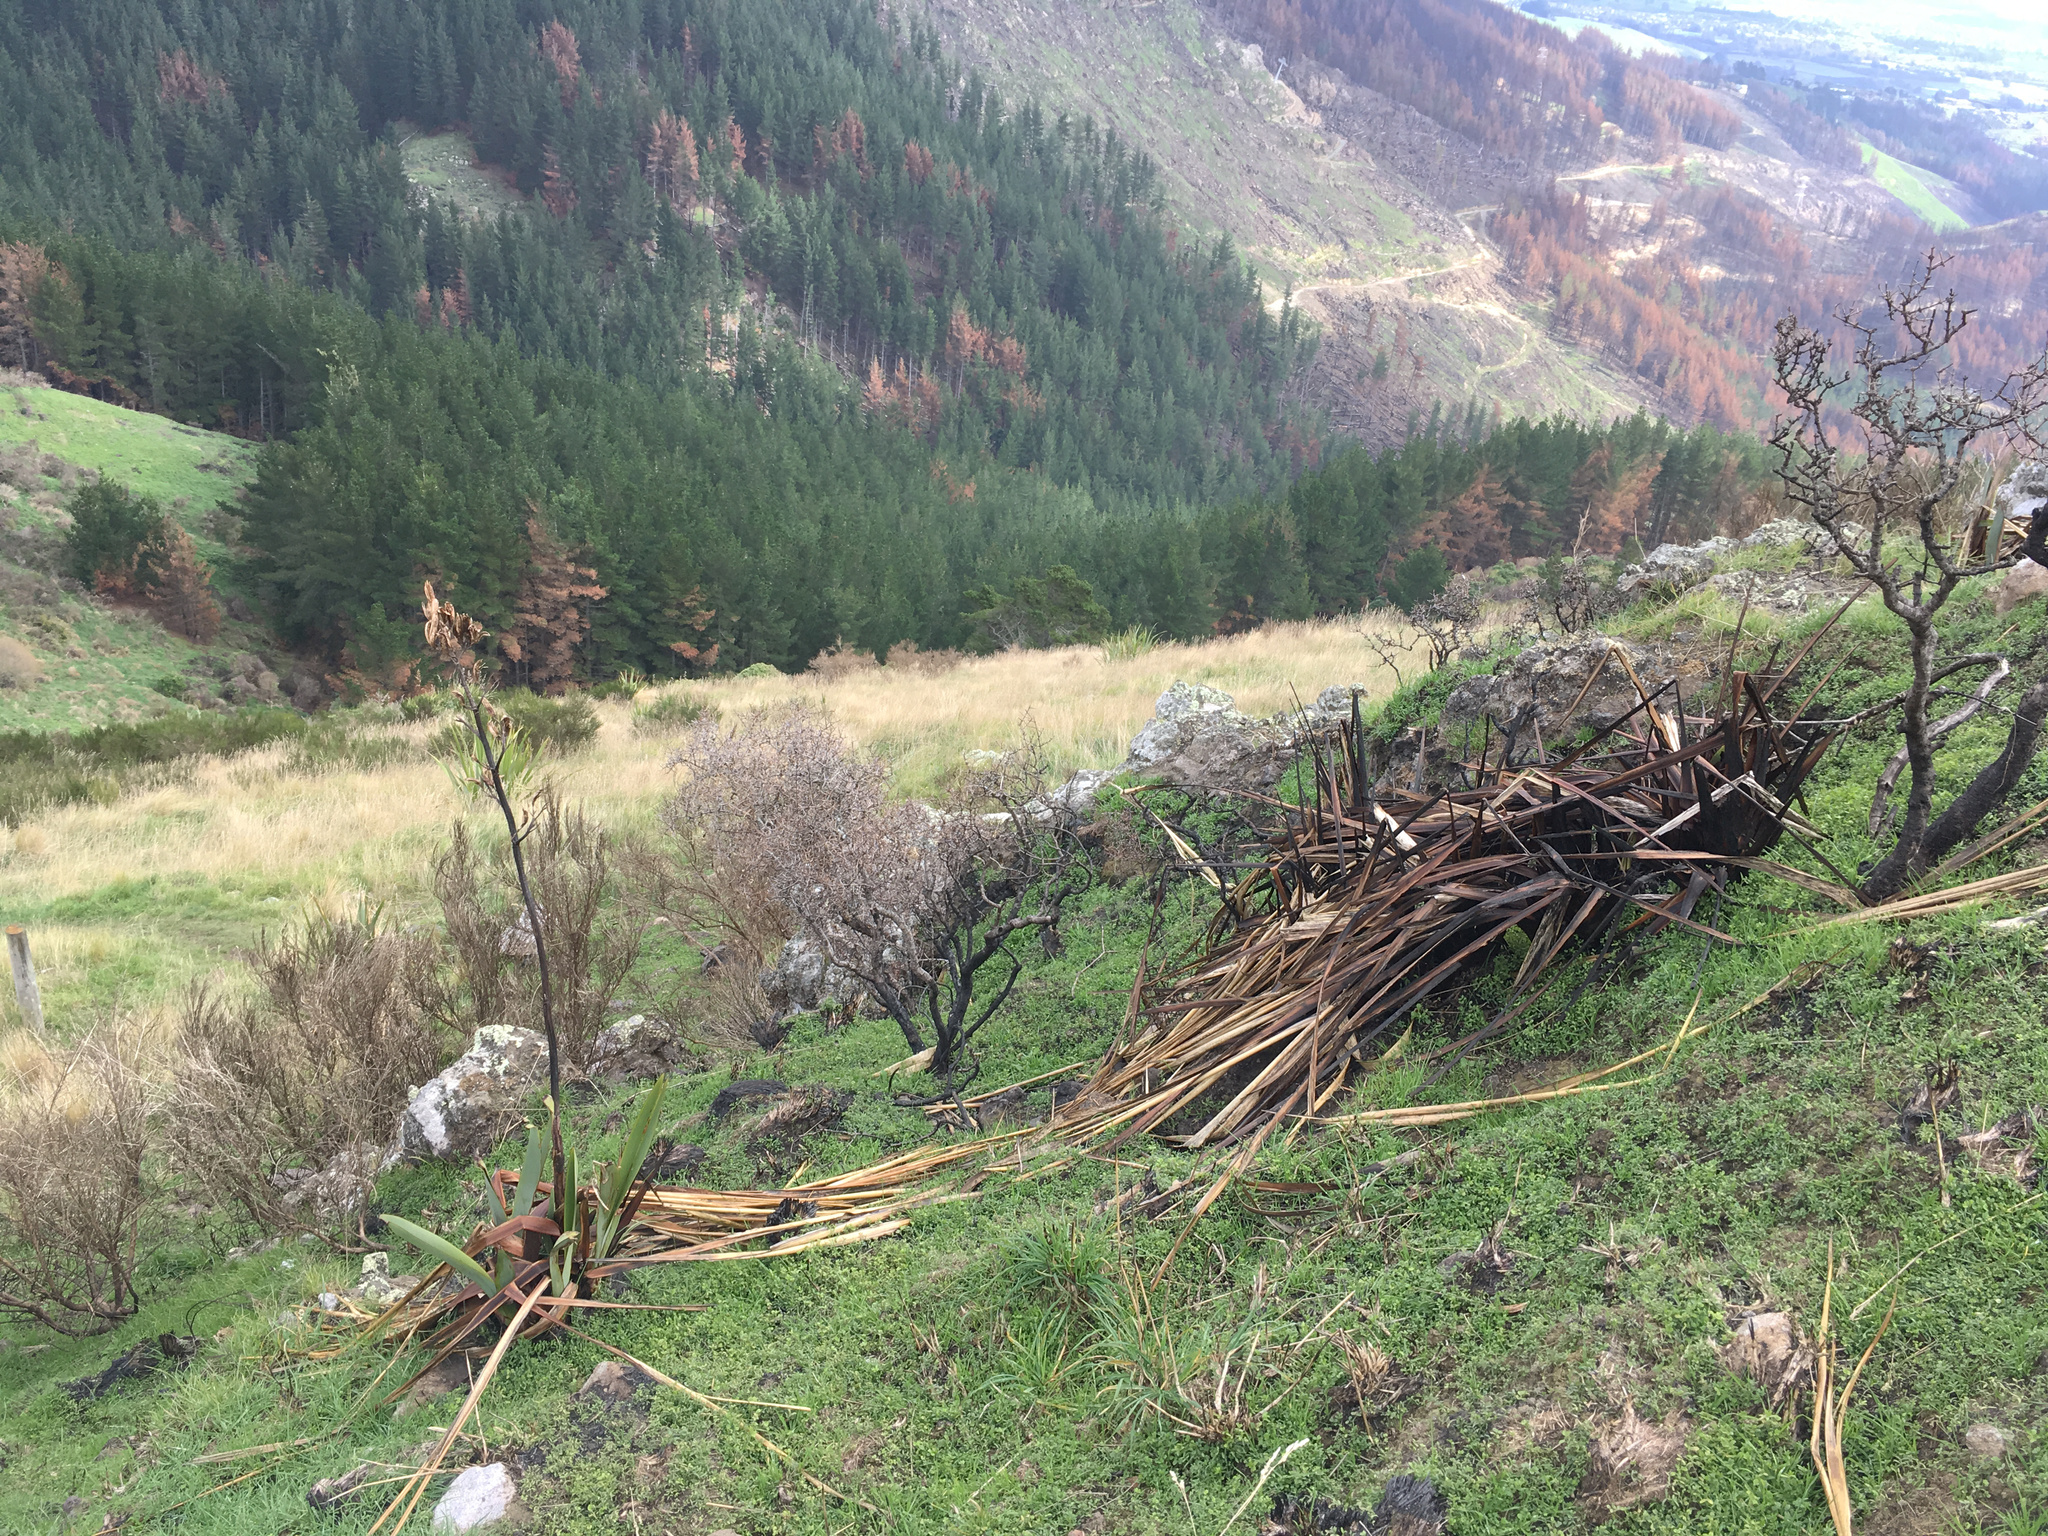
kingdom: Plantae
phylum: Tracheophyta
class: Liliopsida
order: Asparagales
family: Asphodelaceae
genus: Phormium
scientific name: Phormium tenax
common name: New zealand flax
